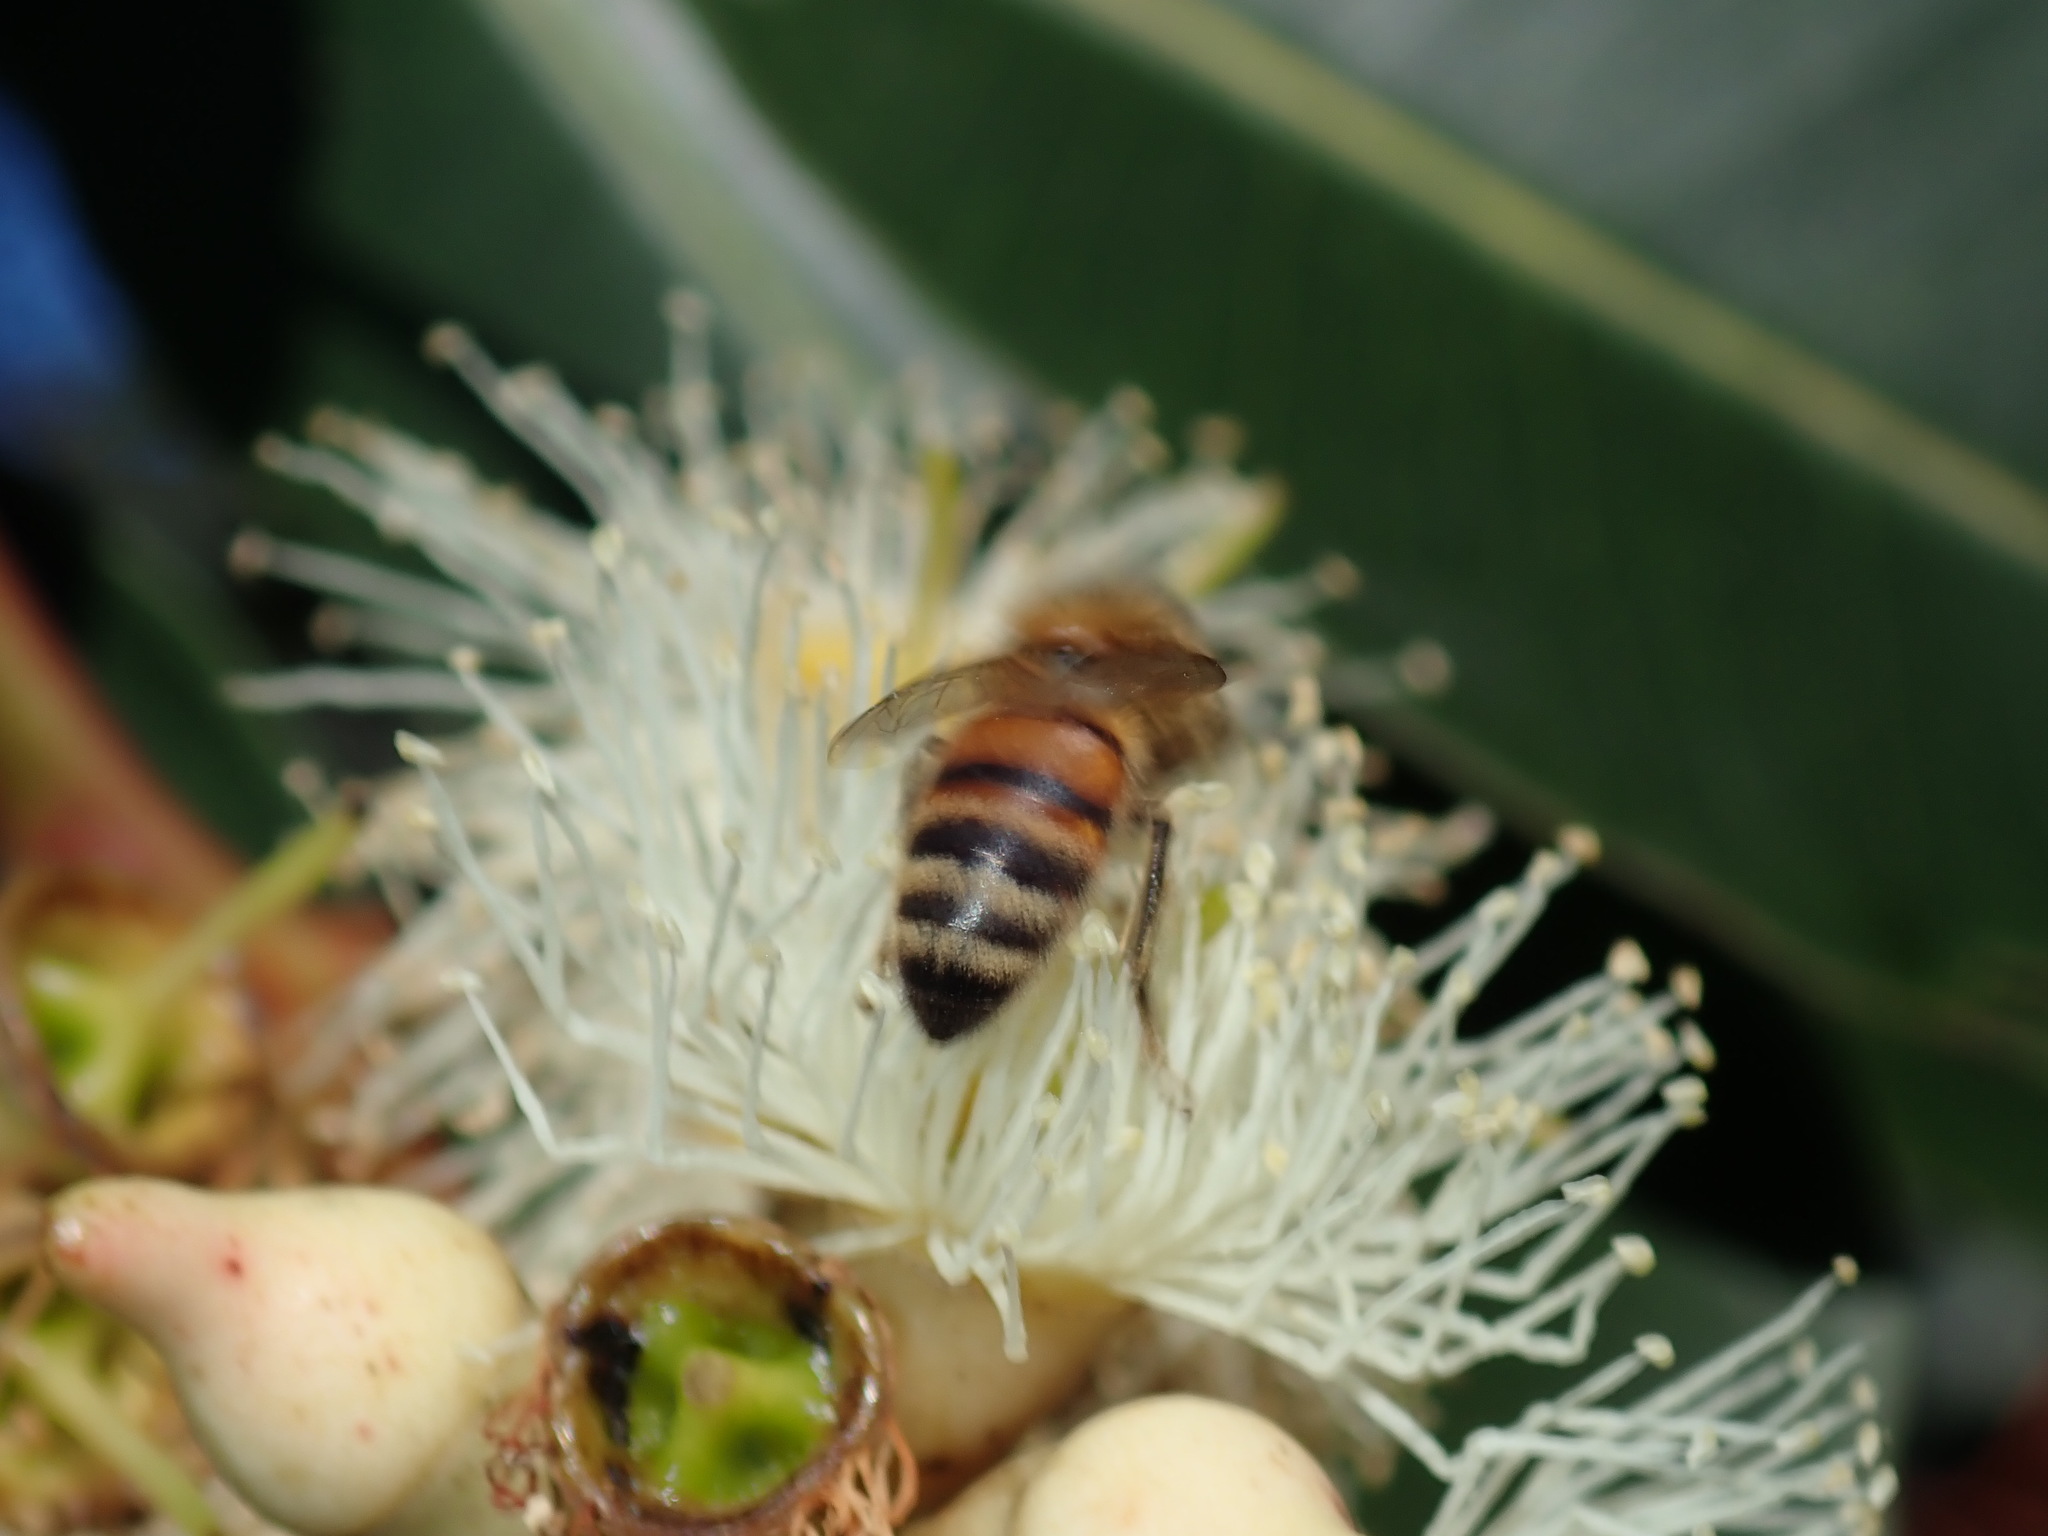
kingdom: Animalia
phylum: Arthropoda
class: Insecta
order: Hymenoptera
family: Apidae
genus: Apis
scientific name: Apis mellifera
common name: Honey bee
